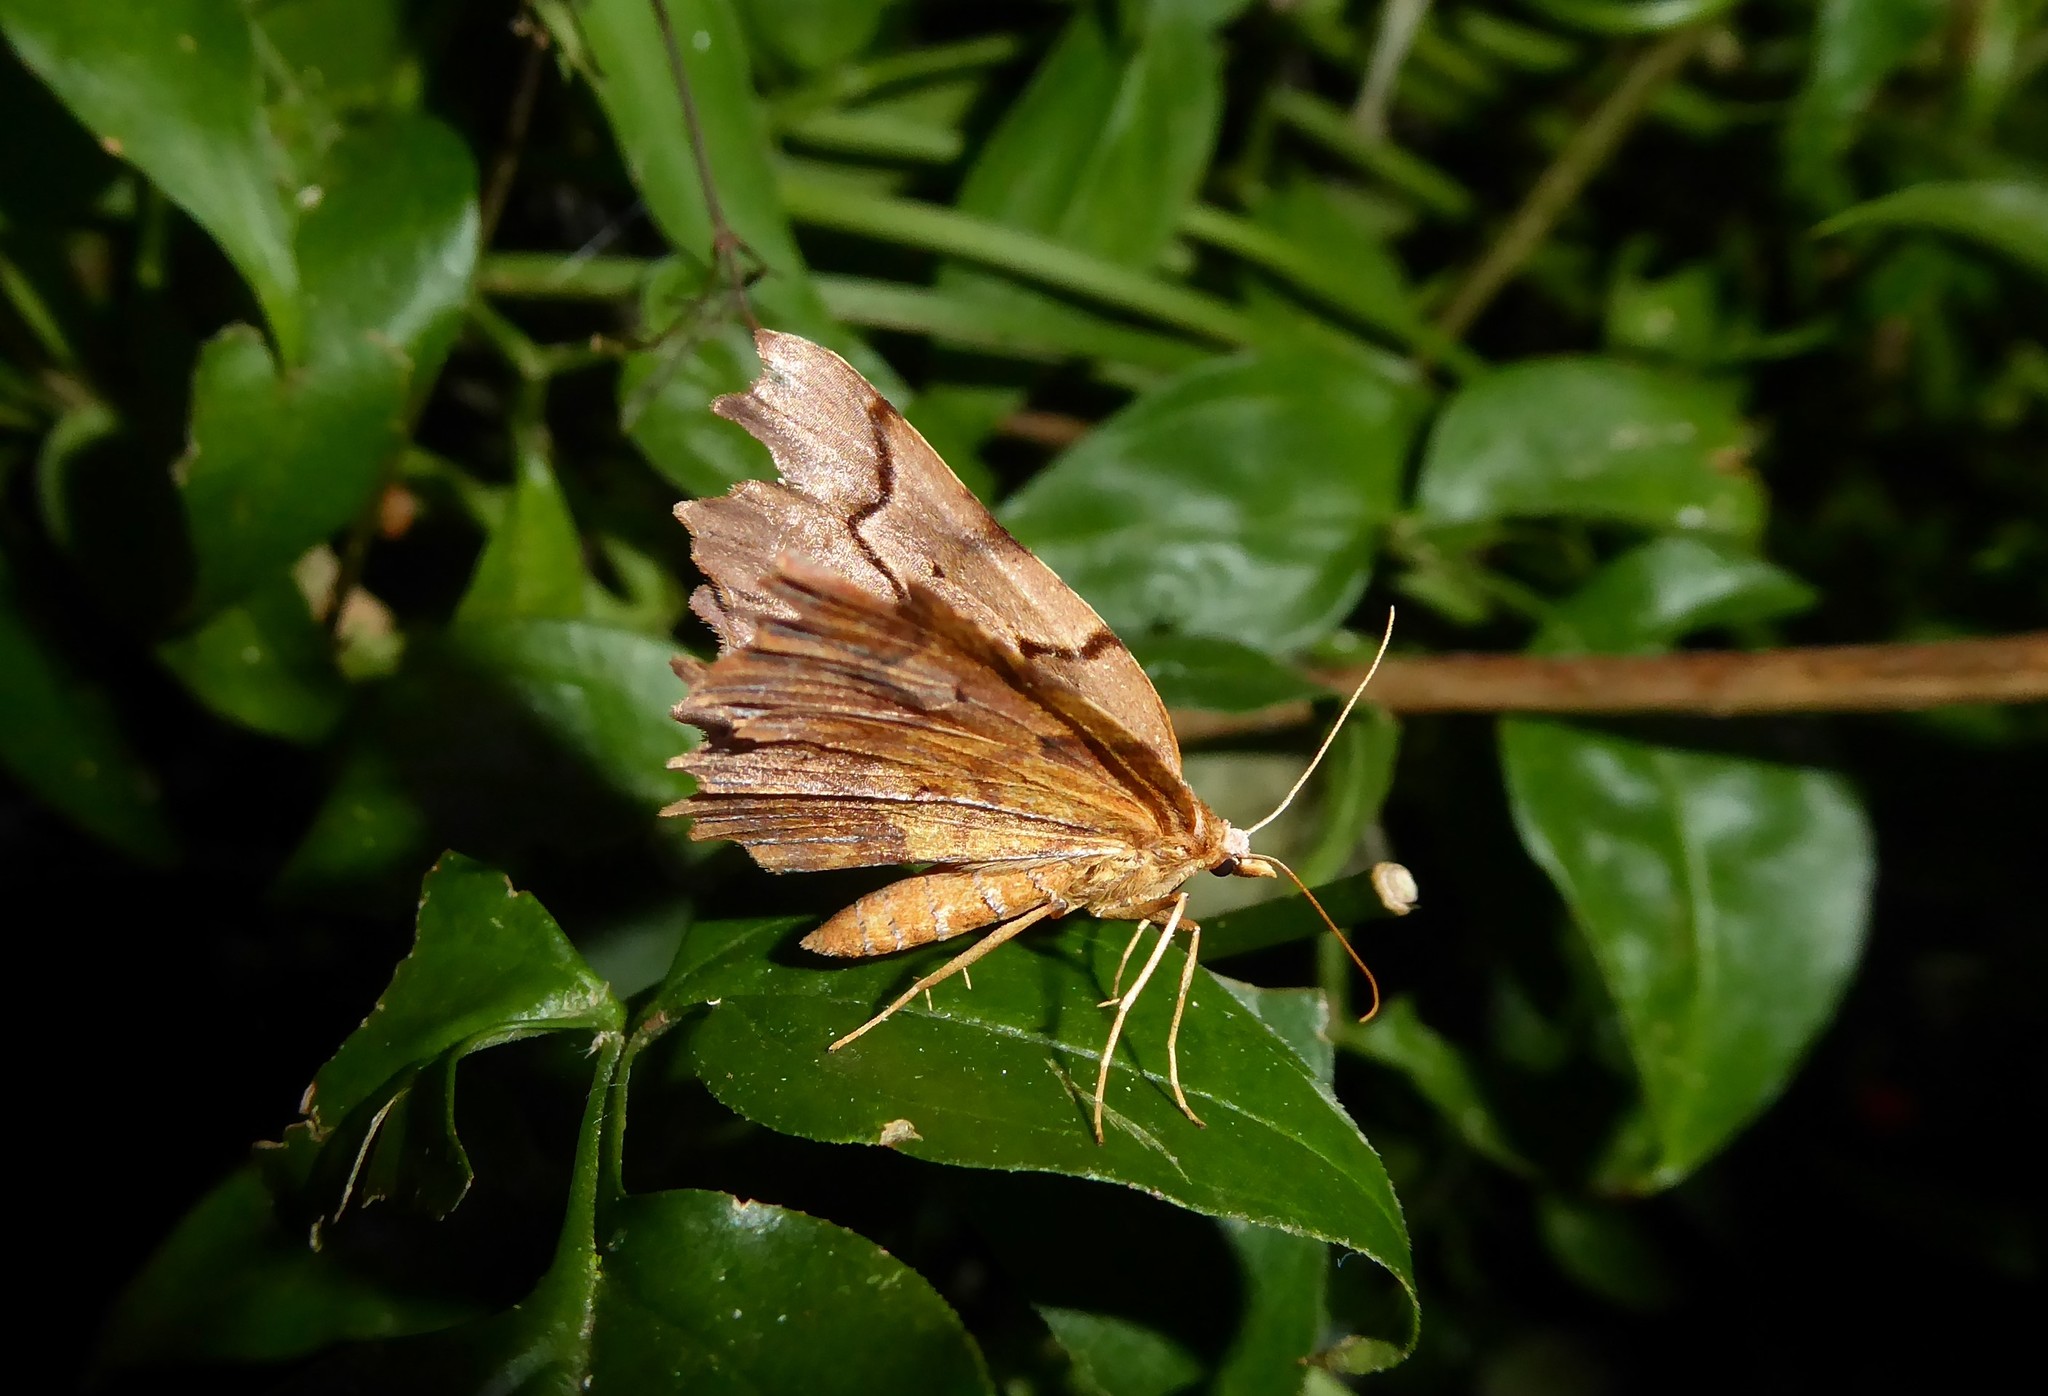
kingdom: Animalia
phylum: Arthropoda
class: Insecta
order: Lepidoptera
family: Geometridae
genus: Ischalis
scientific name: Ischalis fortinata
